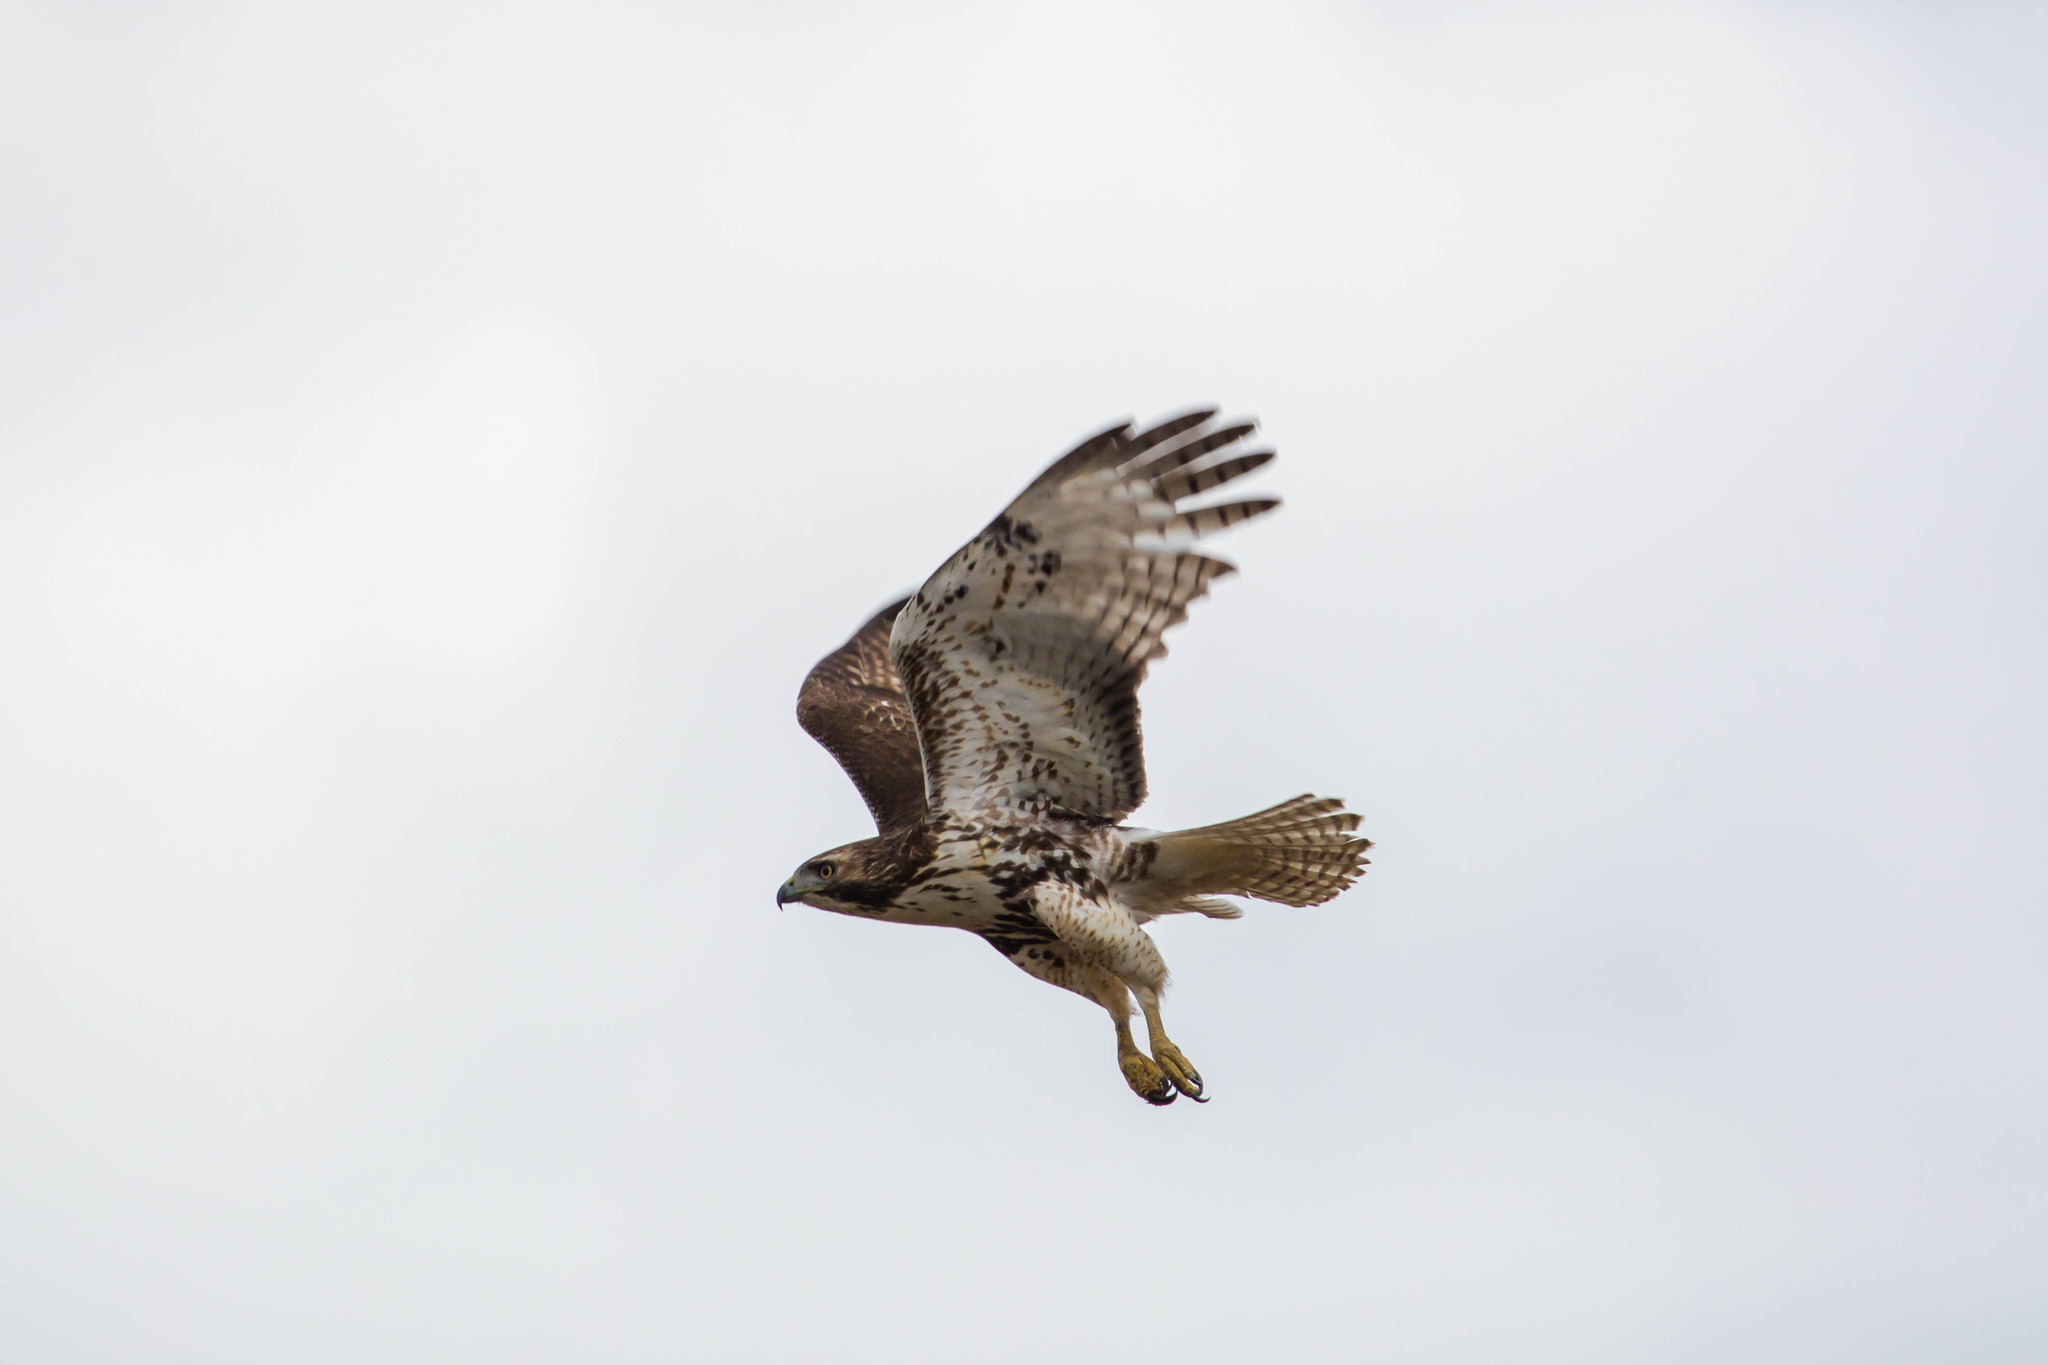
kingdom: Animalia
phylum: Chordata
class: Aves
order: Accipitriformes
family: Accipitridae
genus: Buteo
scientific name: Buteo jamaicensis
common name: Red-tailed hawk
